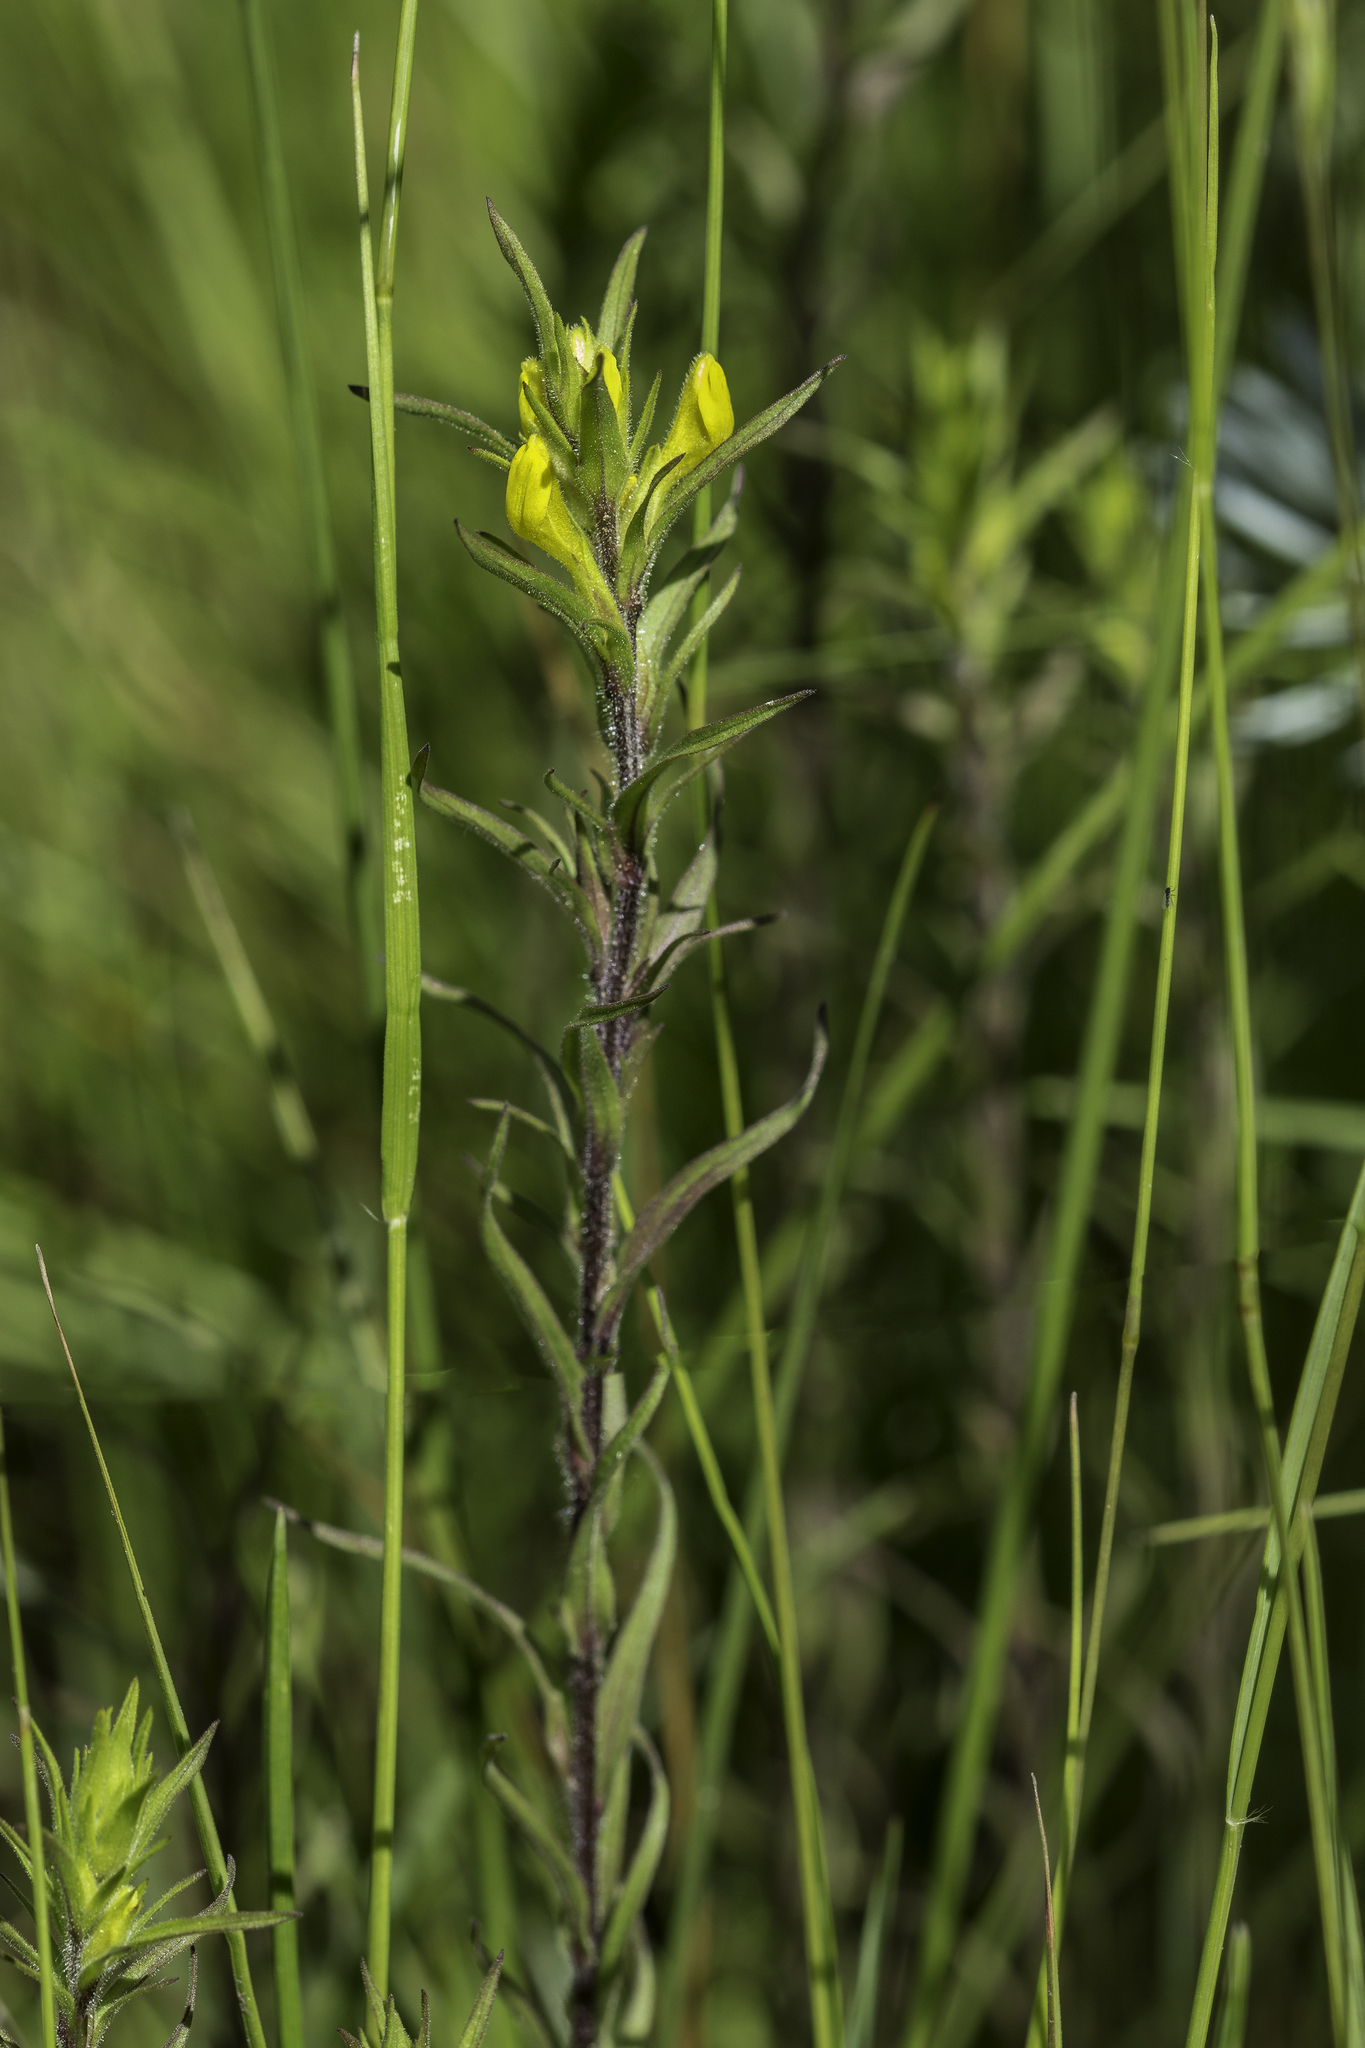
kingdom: Plantae
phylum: Tracheophyta
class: Magnoliopsida
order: Lamiales
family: Orobanchaceae
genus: Orthocarpus
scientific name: Orthocarpus luteus
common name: Golden-tongue owl's-clover
